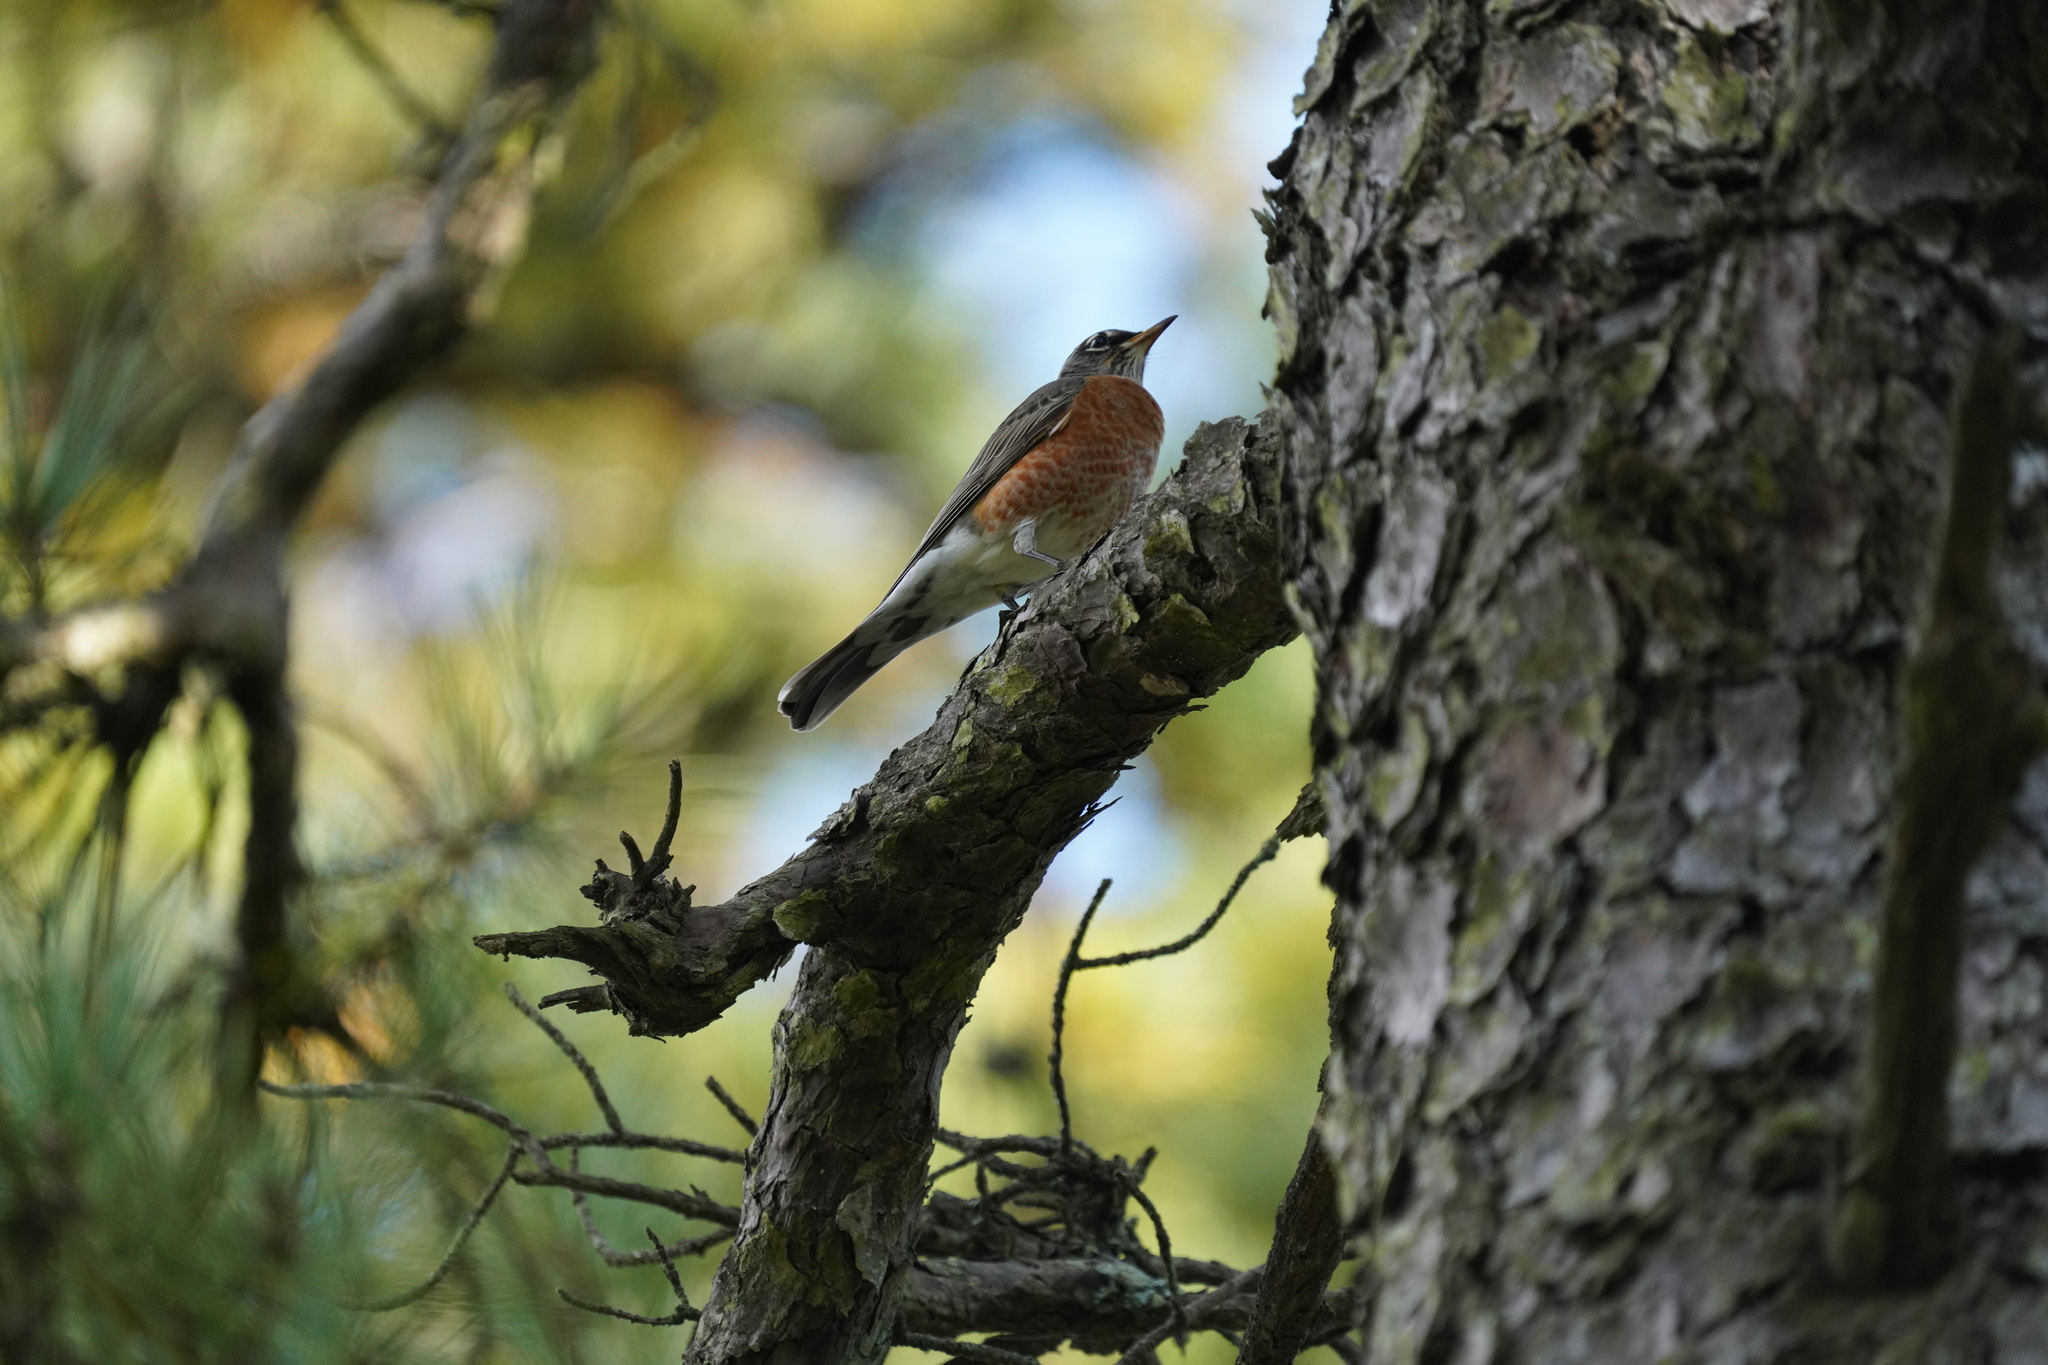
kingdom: Animalia
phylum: Chordata
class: Aves
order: Passeriformes
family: Turdidae
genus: Turdus
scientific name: Turdus migratorius
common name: American robin
